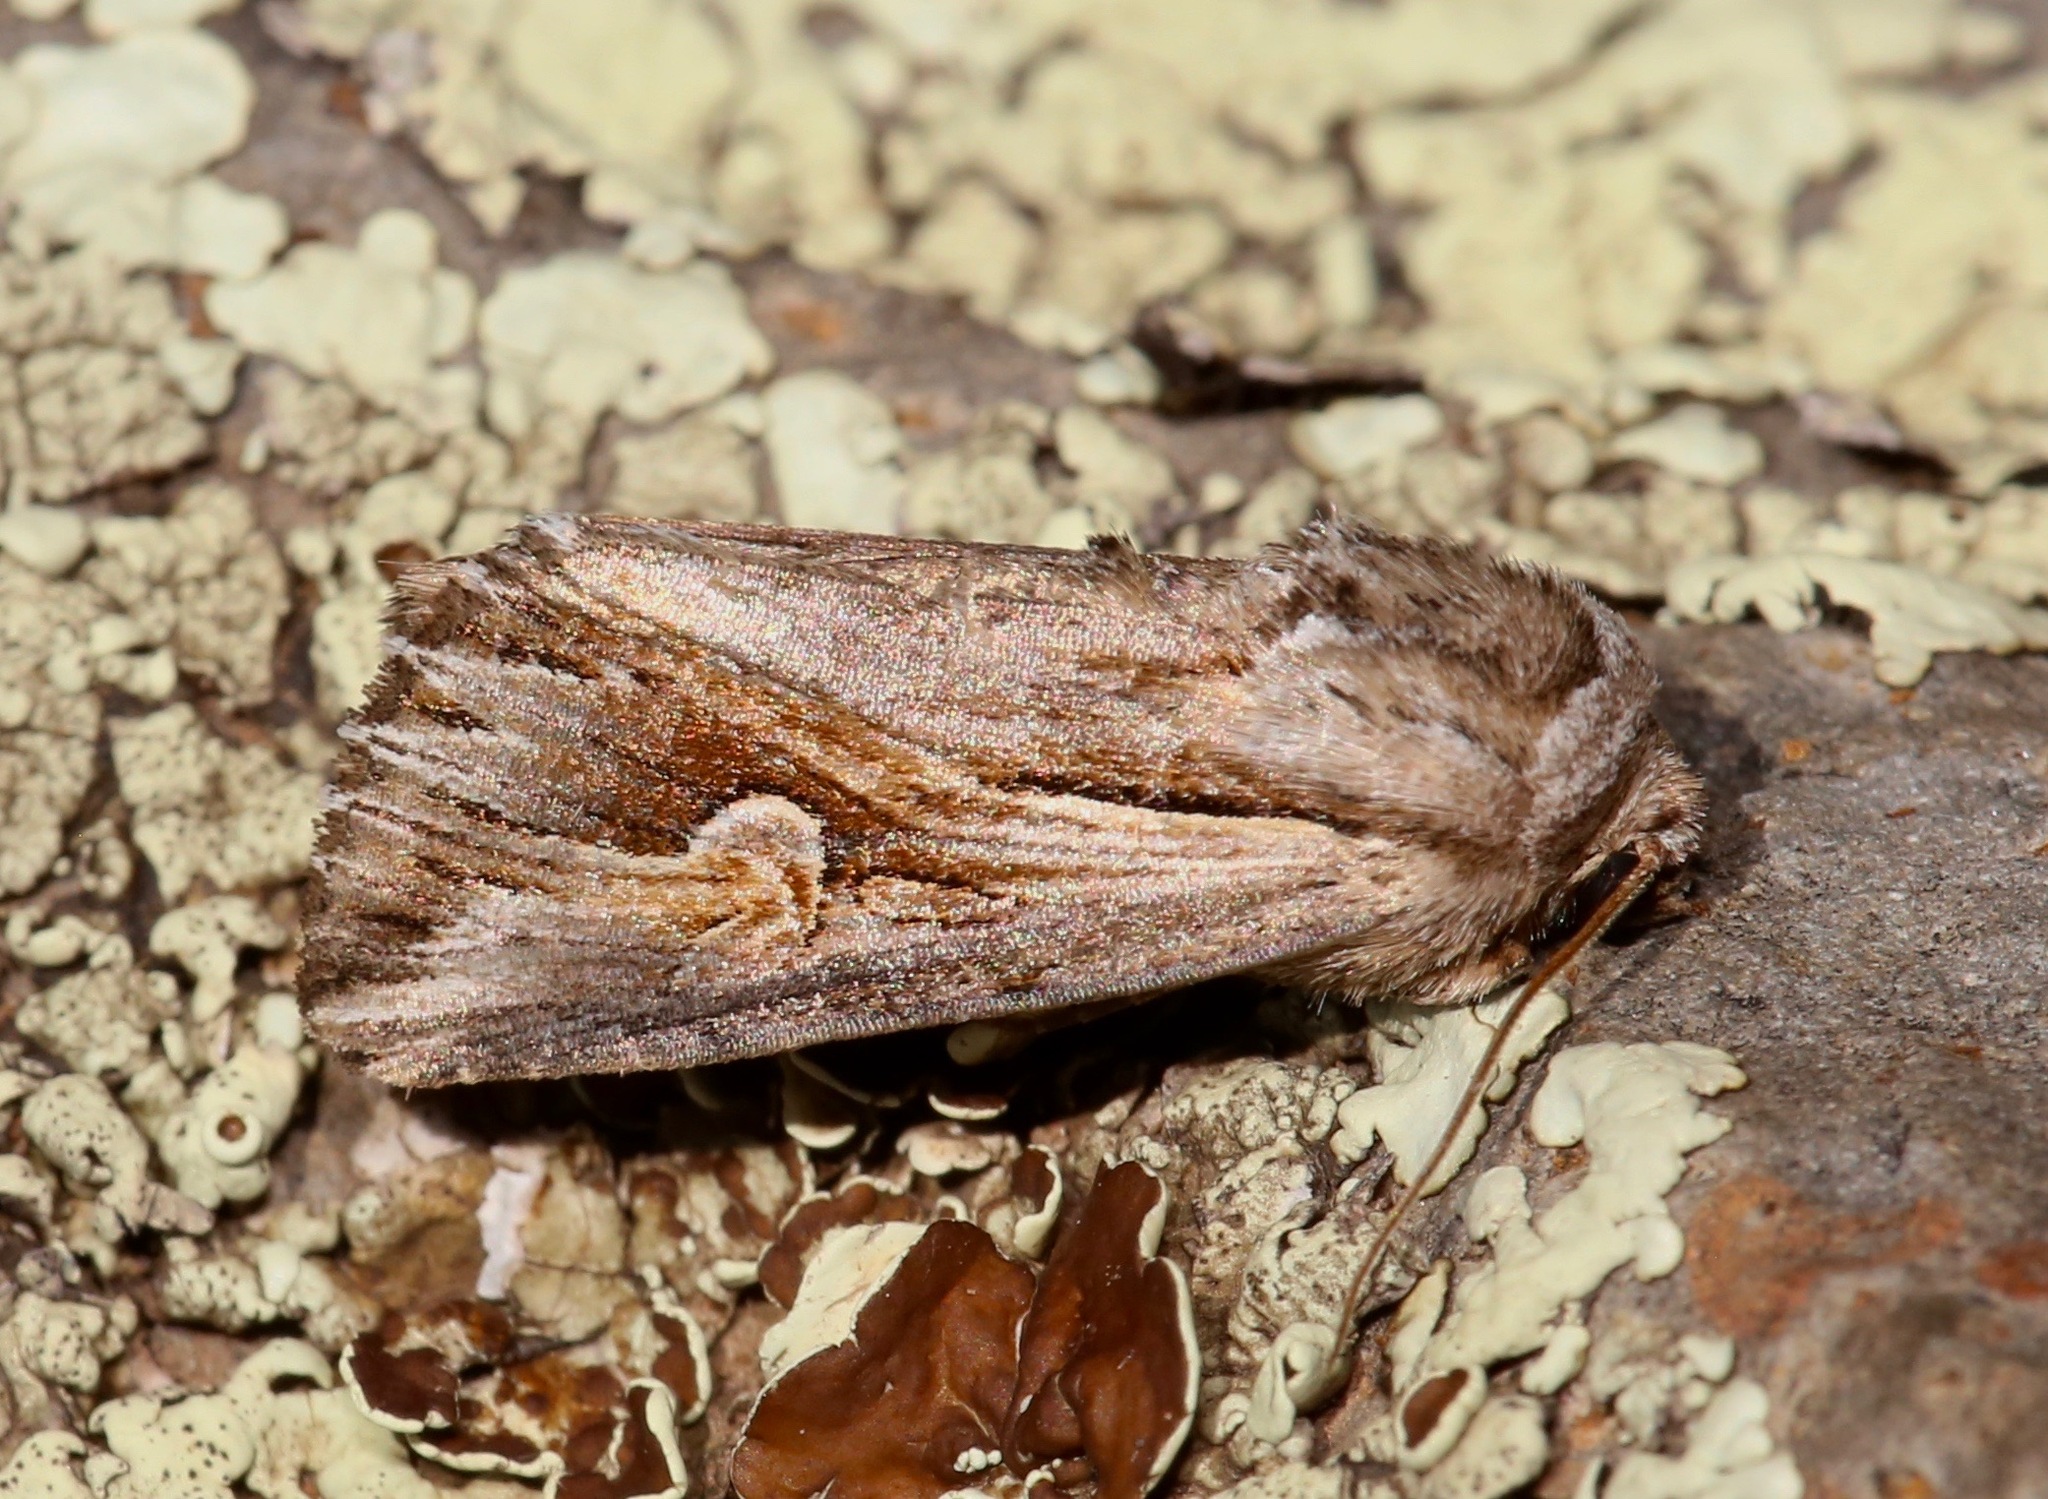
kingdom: Animalia
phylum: Arthropoda
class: Insecta
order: Lepidoptera
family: Noctuidae
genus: Nedra
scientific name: Nedra ramosula
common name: Gray half-spot
